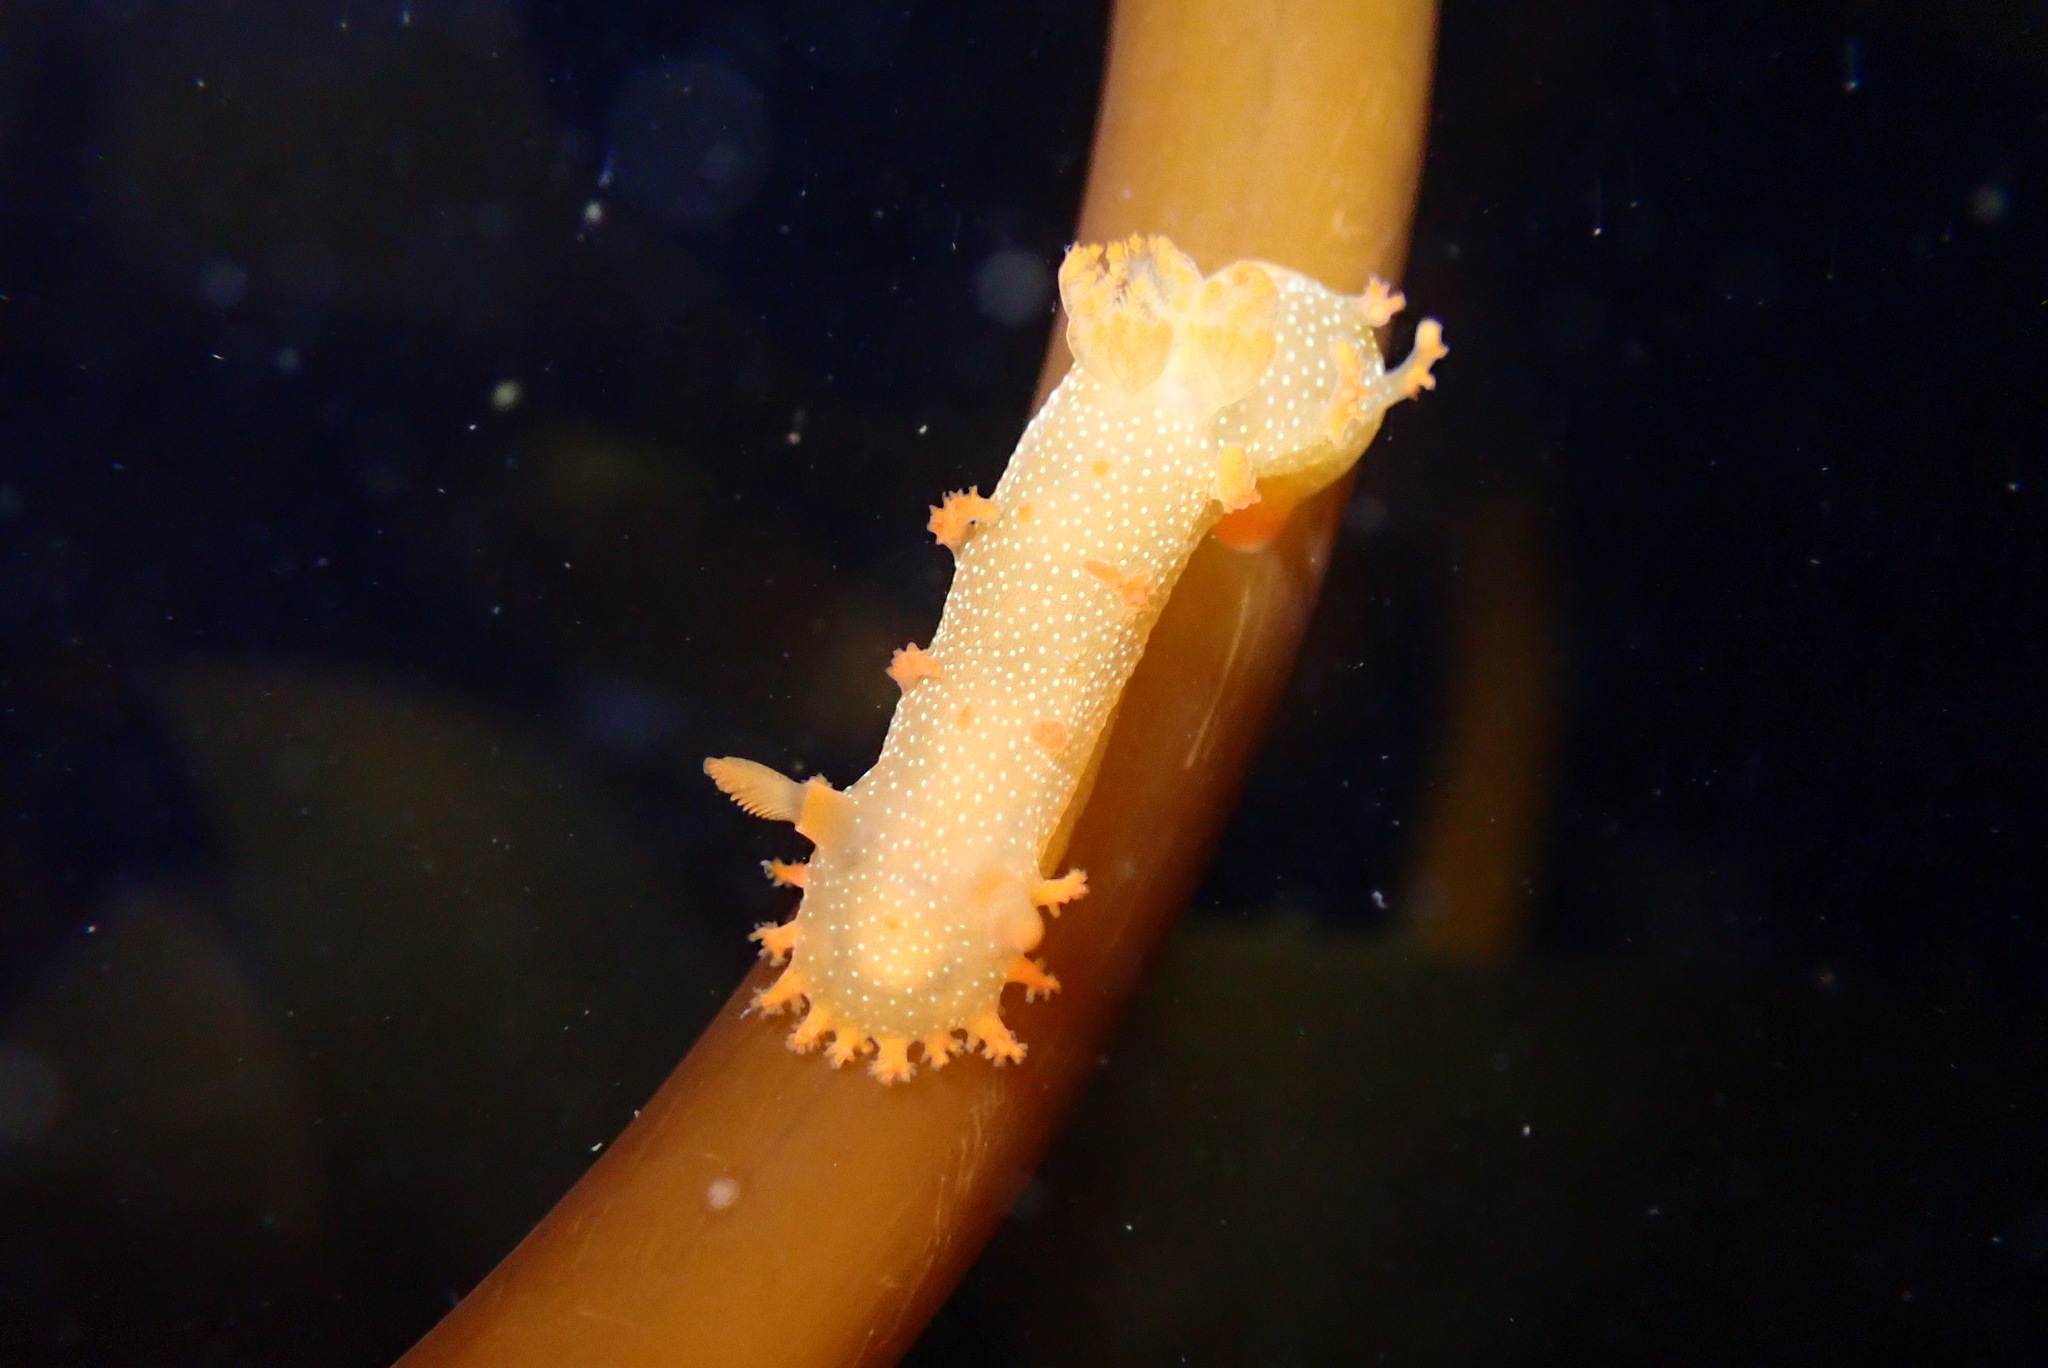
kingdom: Animalia
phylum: Mollusca
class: Gastropoda
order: Nudibranchia
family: Polyceridae
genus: Triopha
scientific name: Triopha maculata
